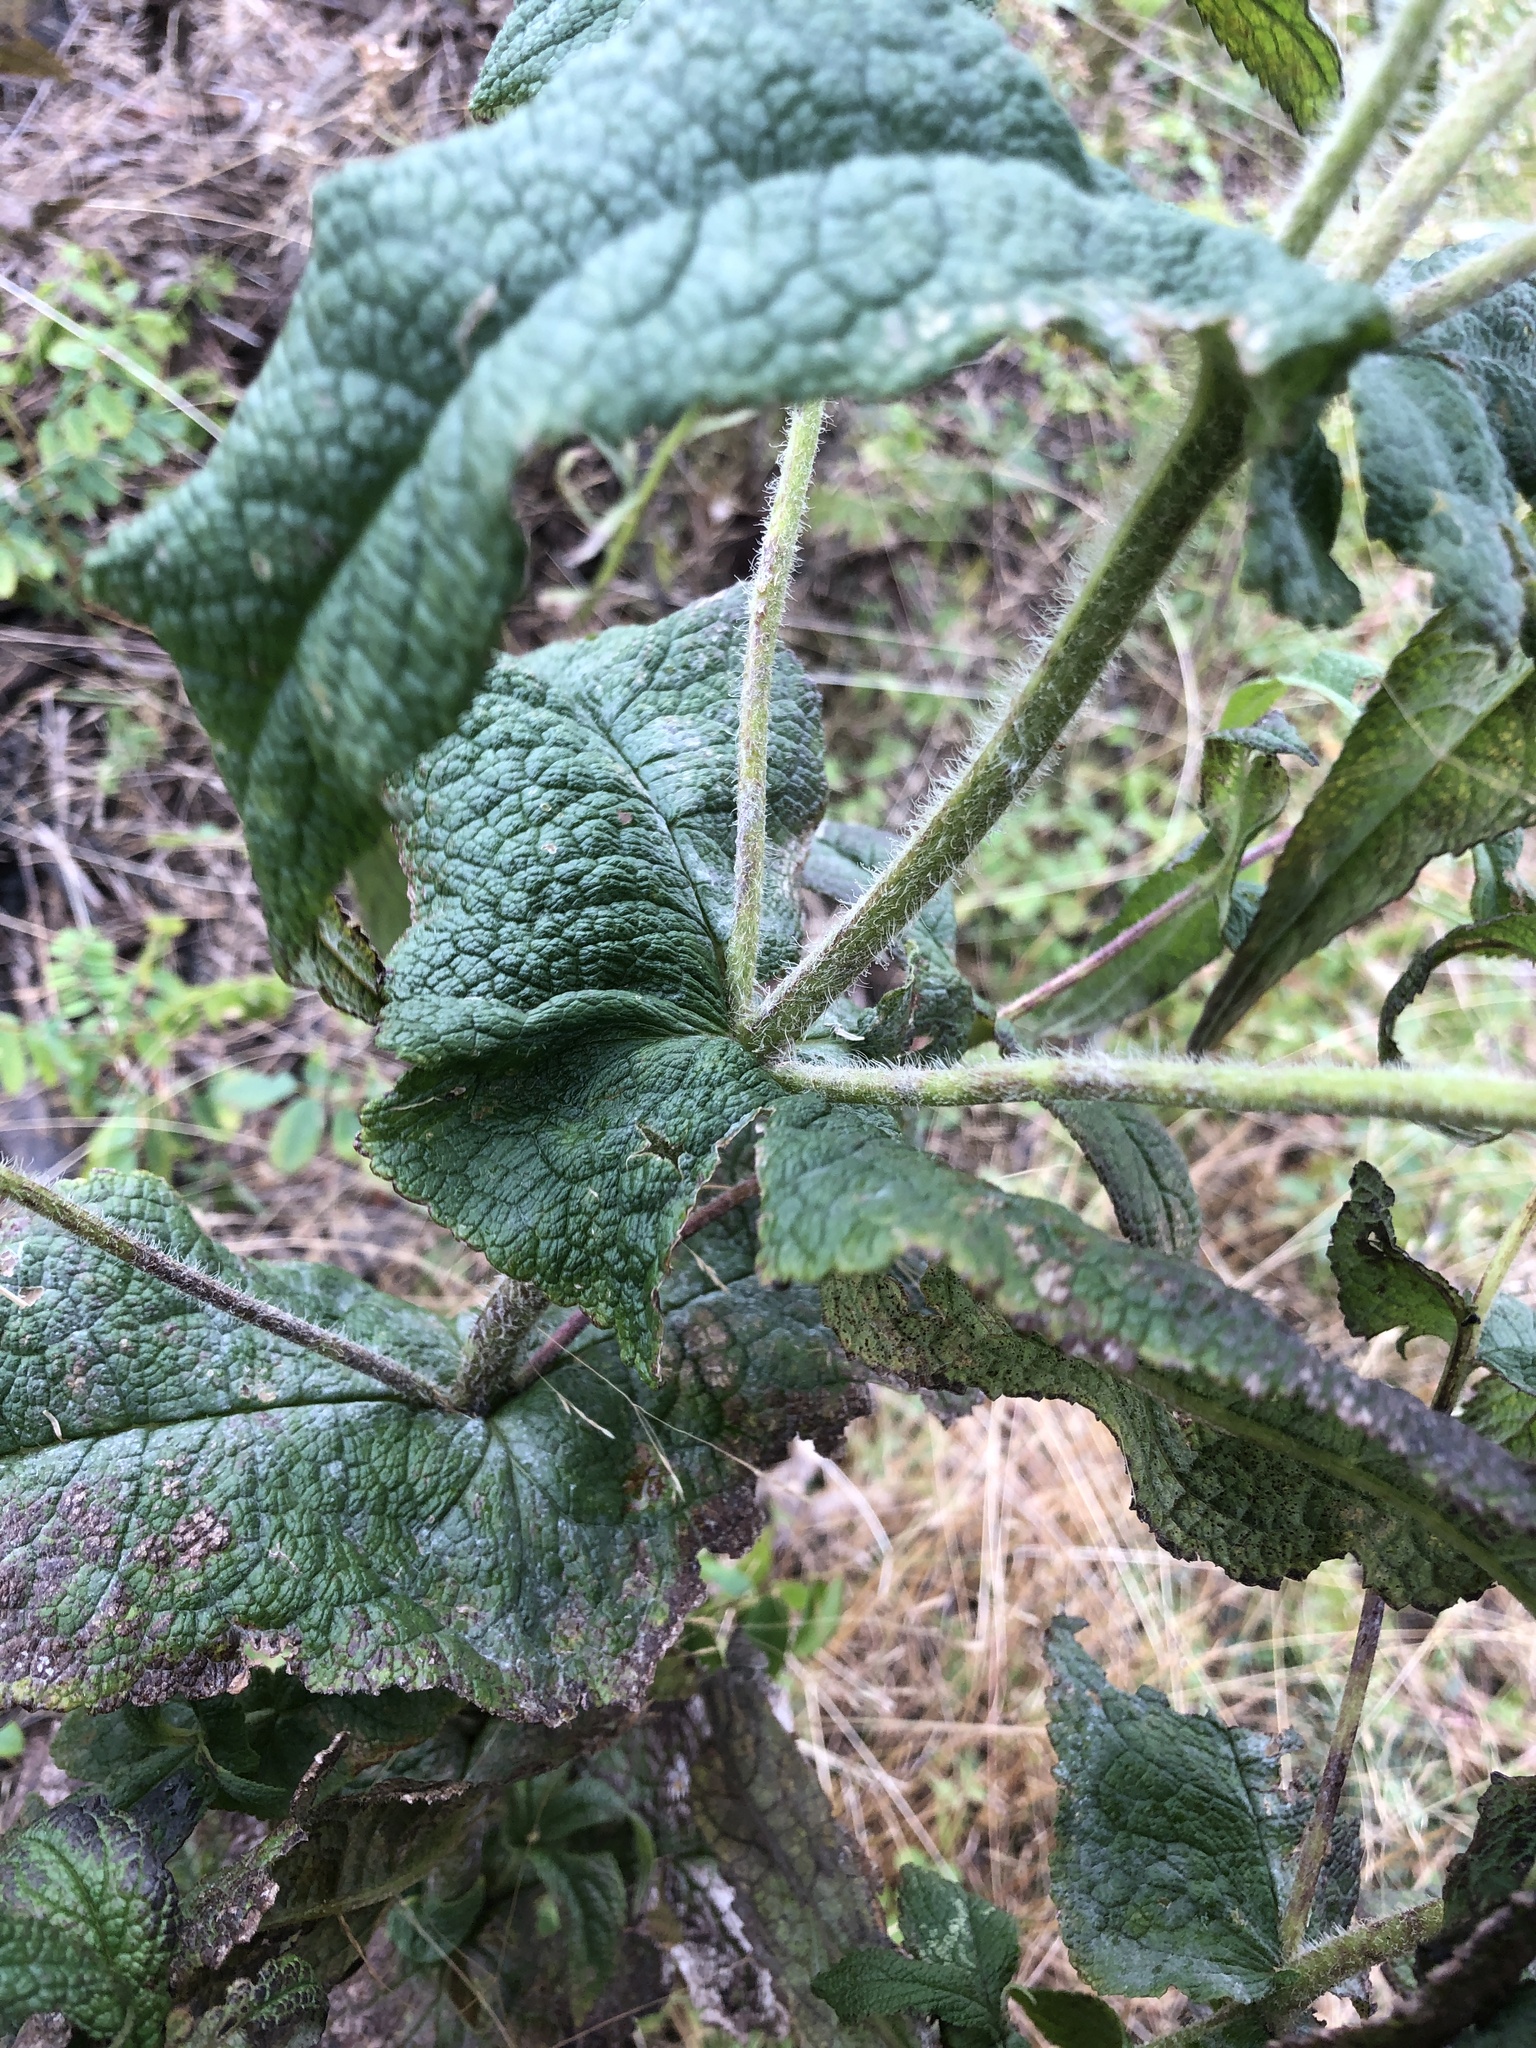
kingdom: Plantae
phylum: Tracheophyta
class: Magnoliopsida
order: Asterales
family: Asteraceae
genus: Eupatorium
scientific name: Eupatorium perfoliatum
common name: Boneset
